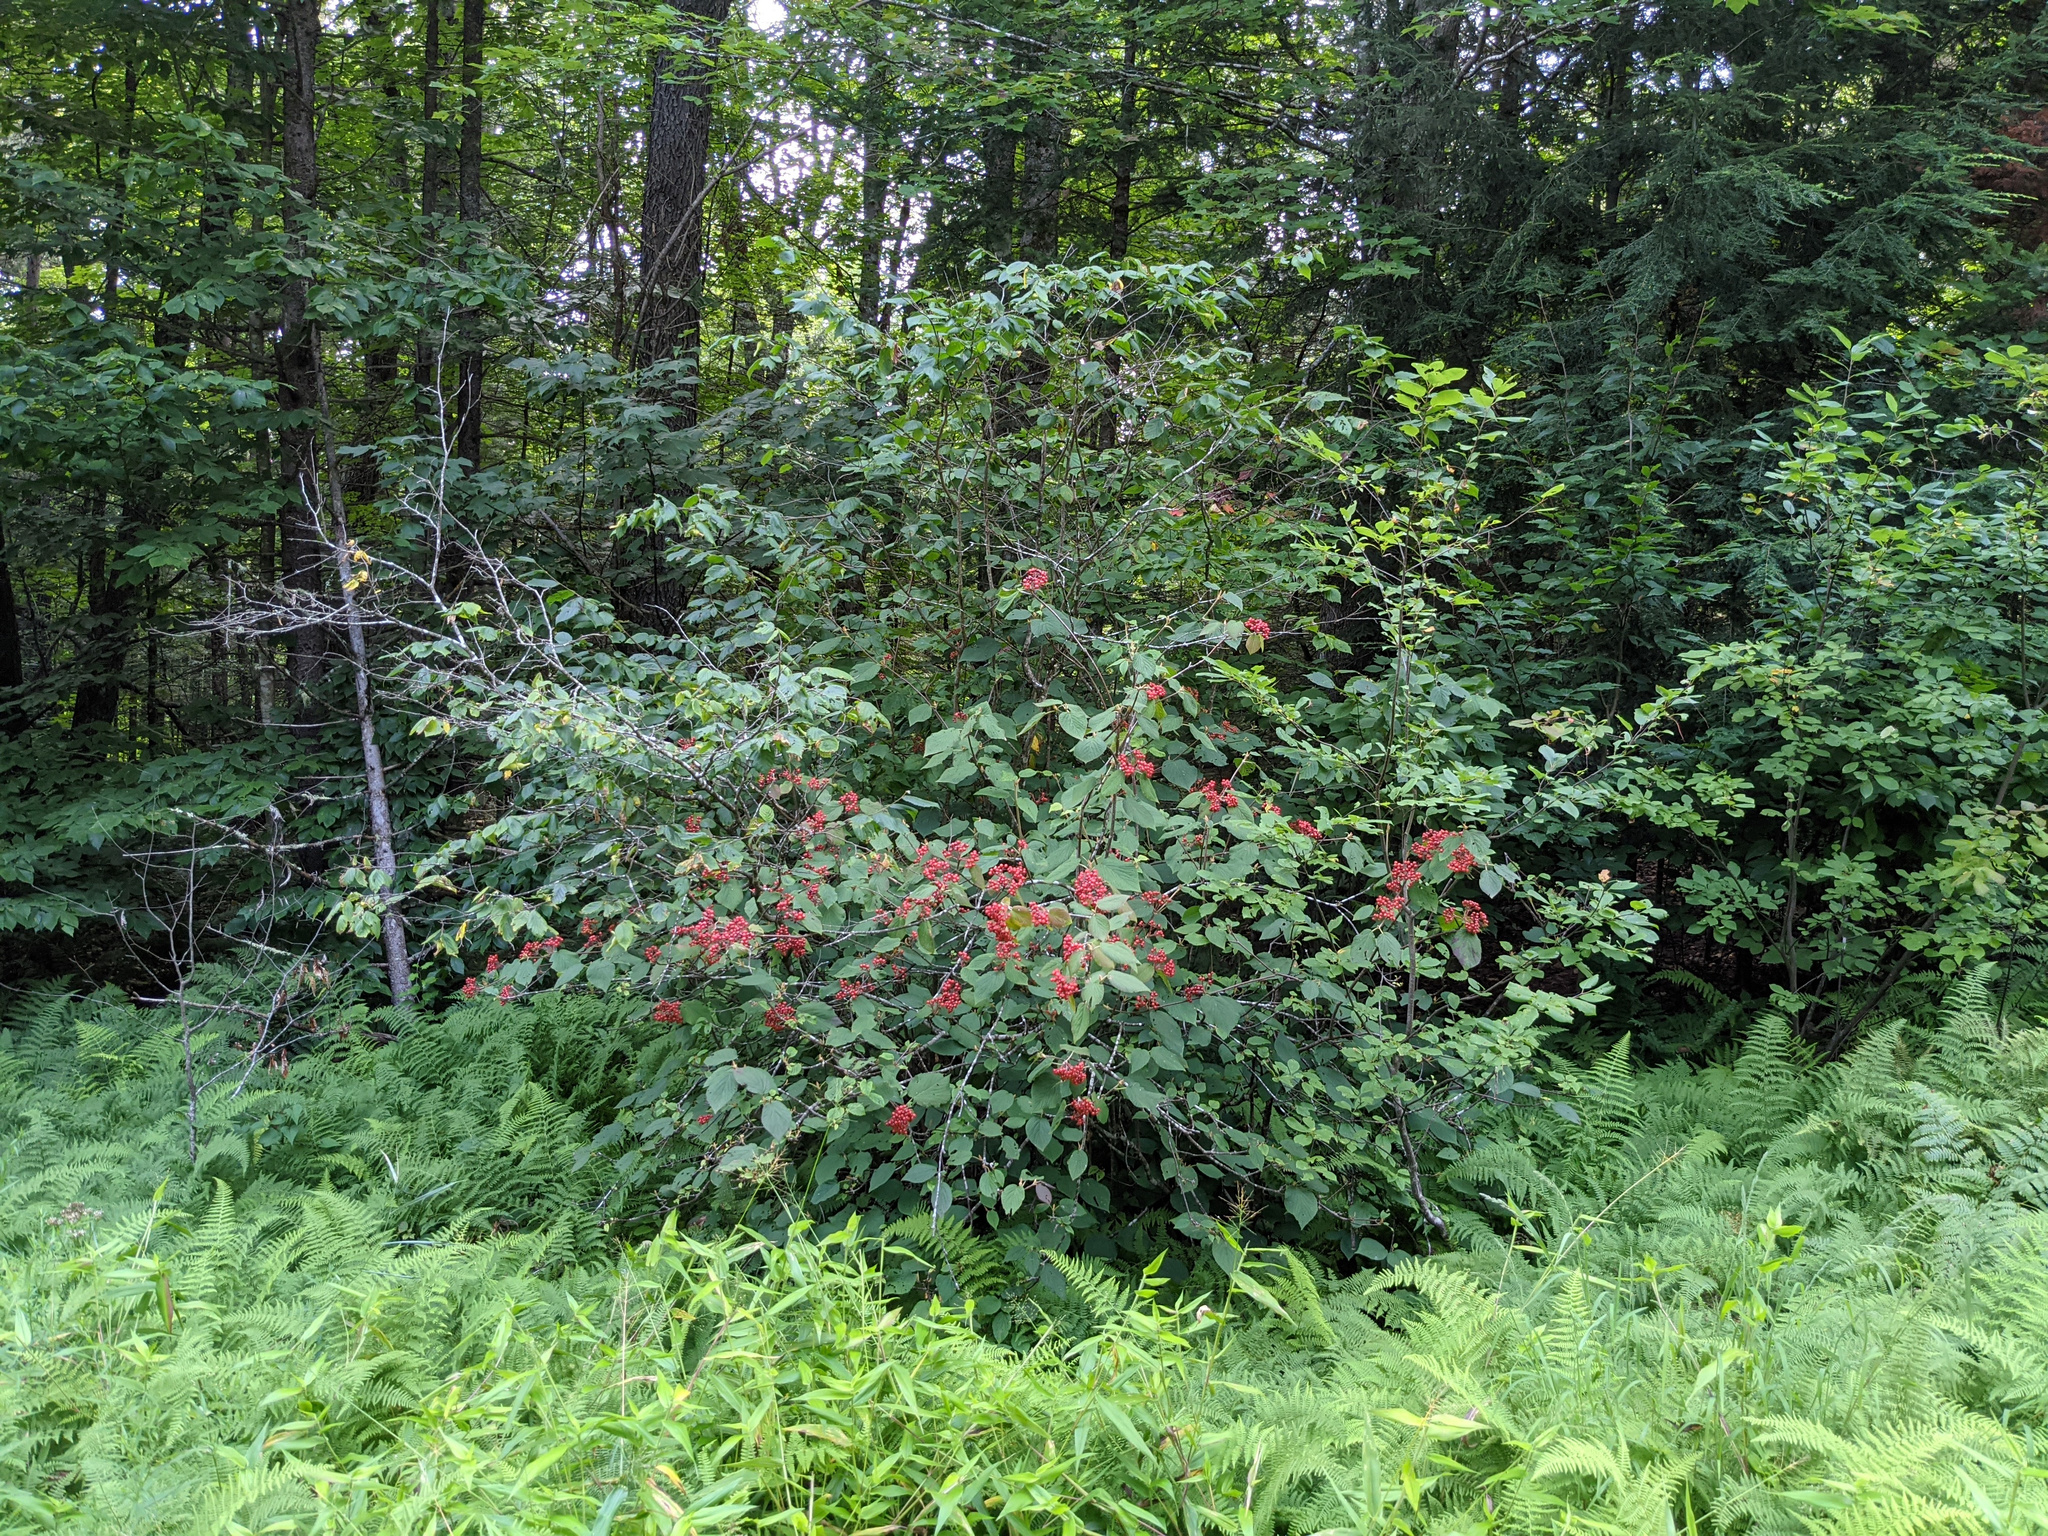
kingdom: Plantae
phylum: Tracheophyta
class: Magnoliopsida
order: Dipsacales
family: Viburnaceae
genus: Viburnum
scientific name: Viburnum lantanoides
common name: Hobblebush
